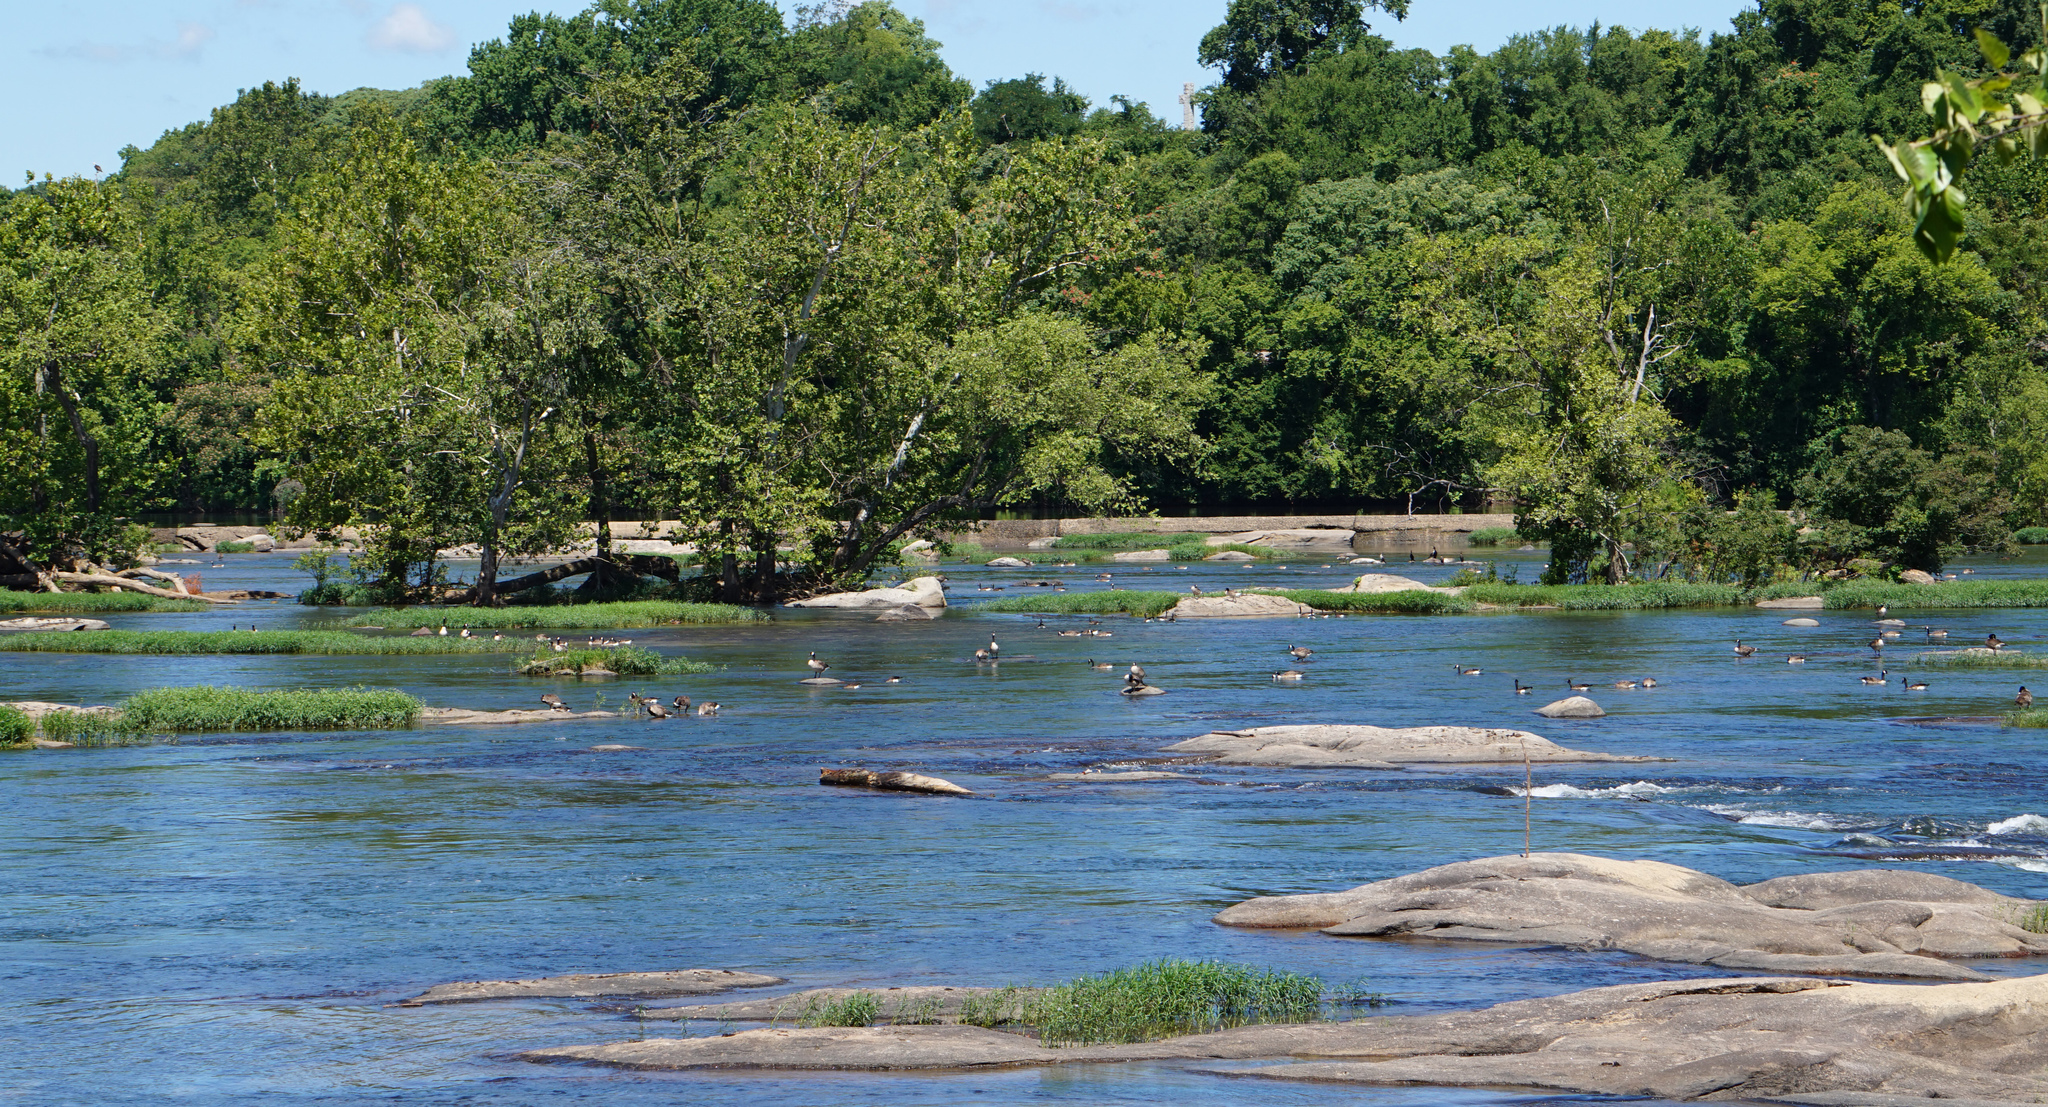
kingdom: Animalia
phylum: Chordata
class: Aves
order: Anseriformes
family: Anatidae
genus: Branta
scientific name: Branta canadensis
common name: Canada goose
